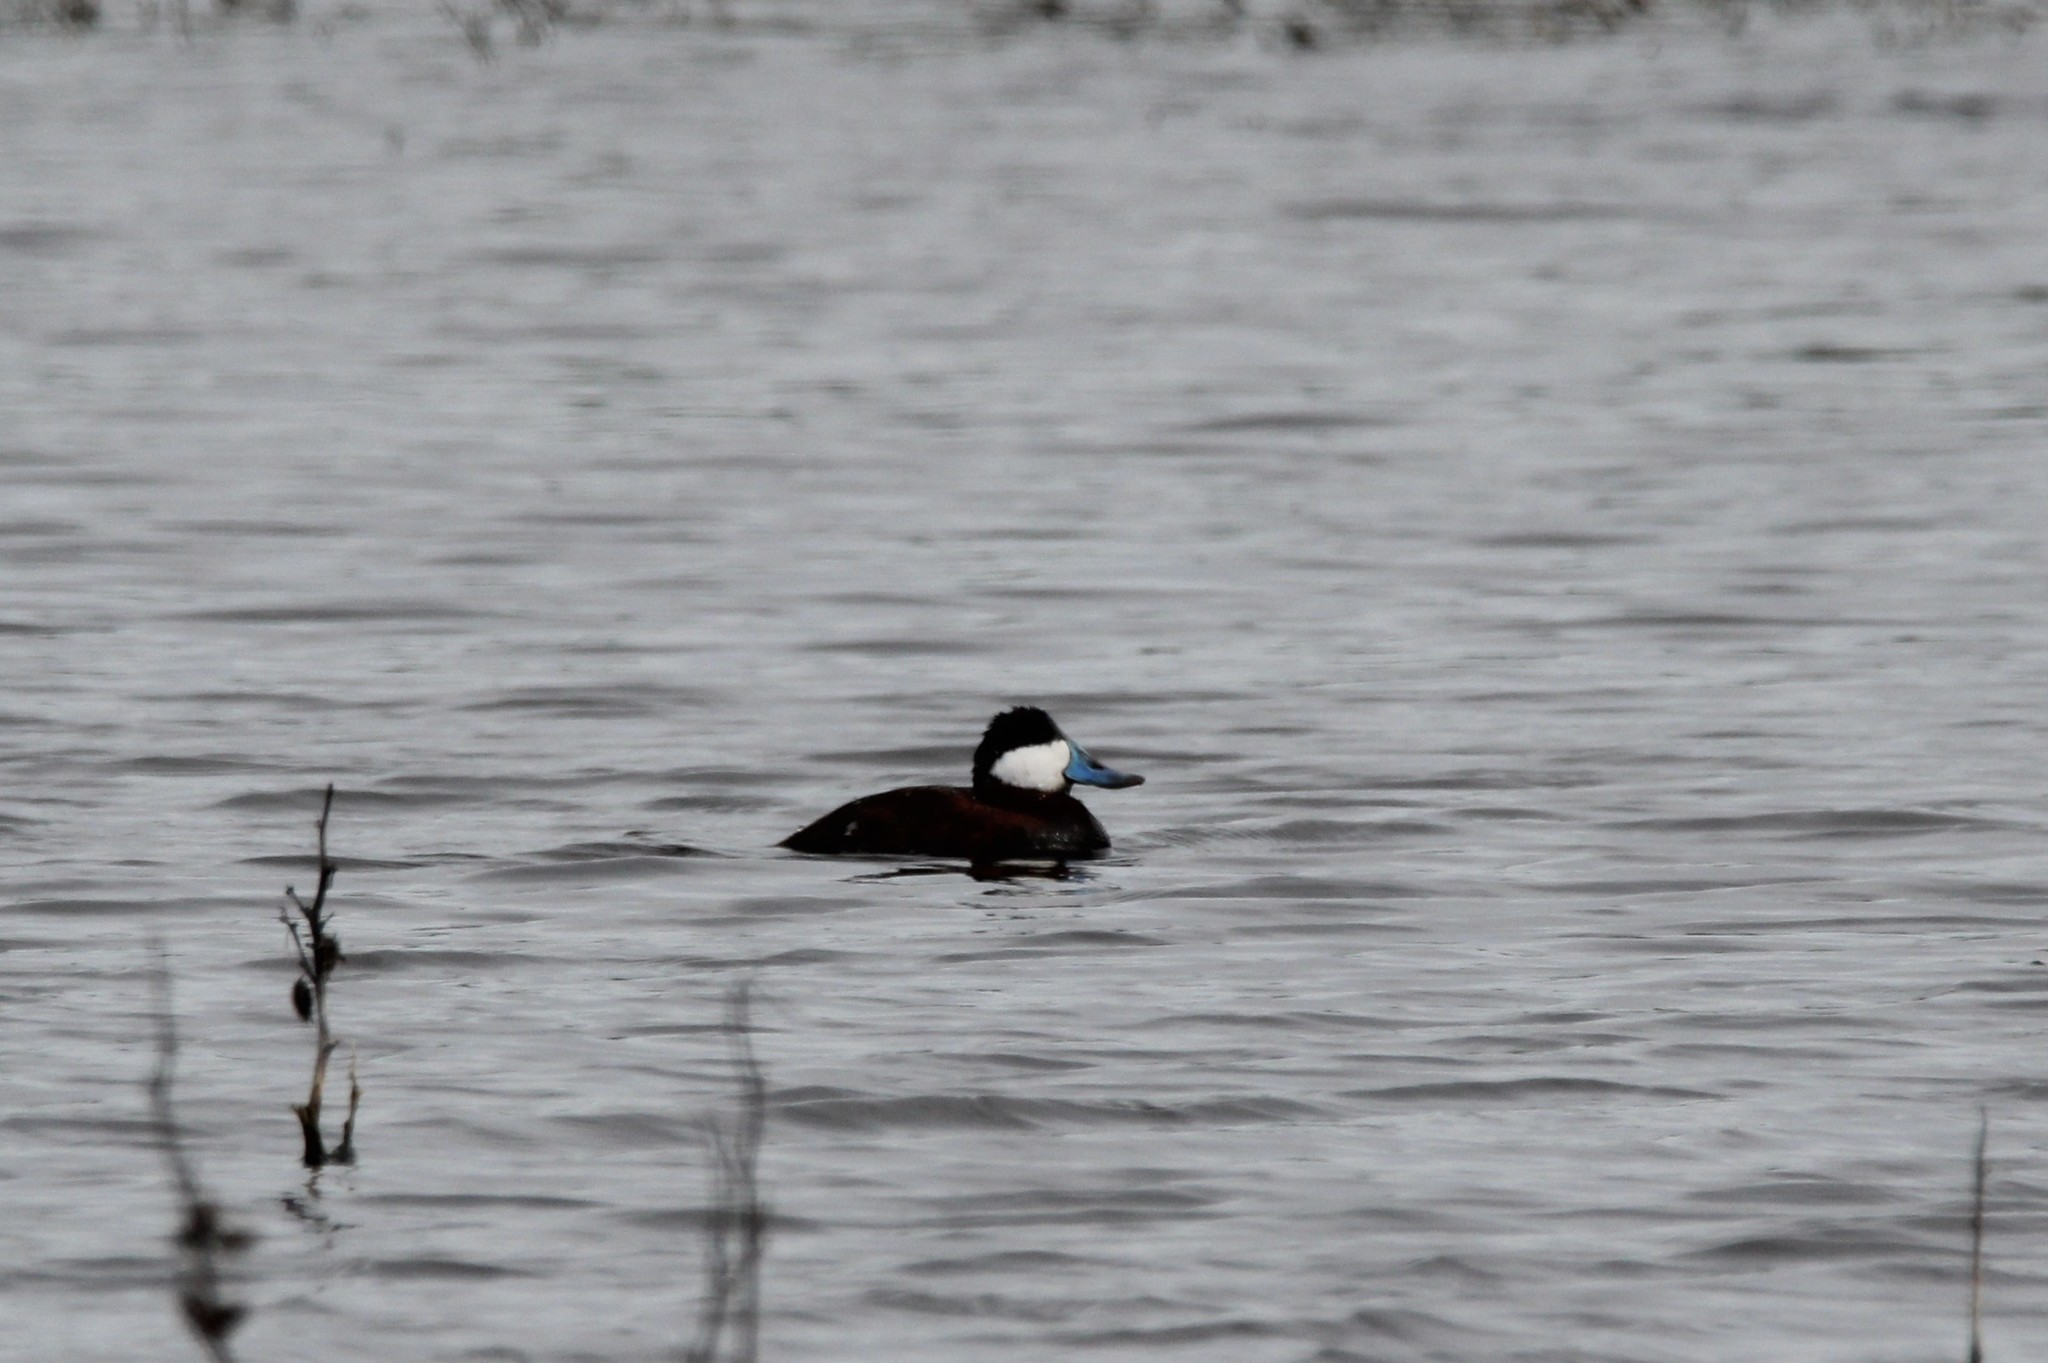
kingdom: Animalia
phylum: Chordata
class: Aves
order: Anseriformes
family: Anatidae
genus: Oxyura
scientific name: Oxyura jamaicensis
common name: Ruddy duck
